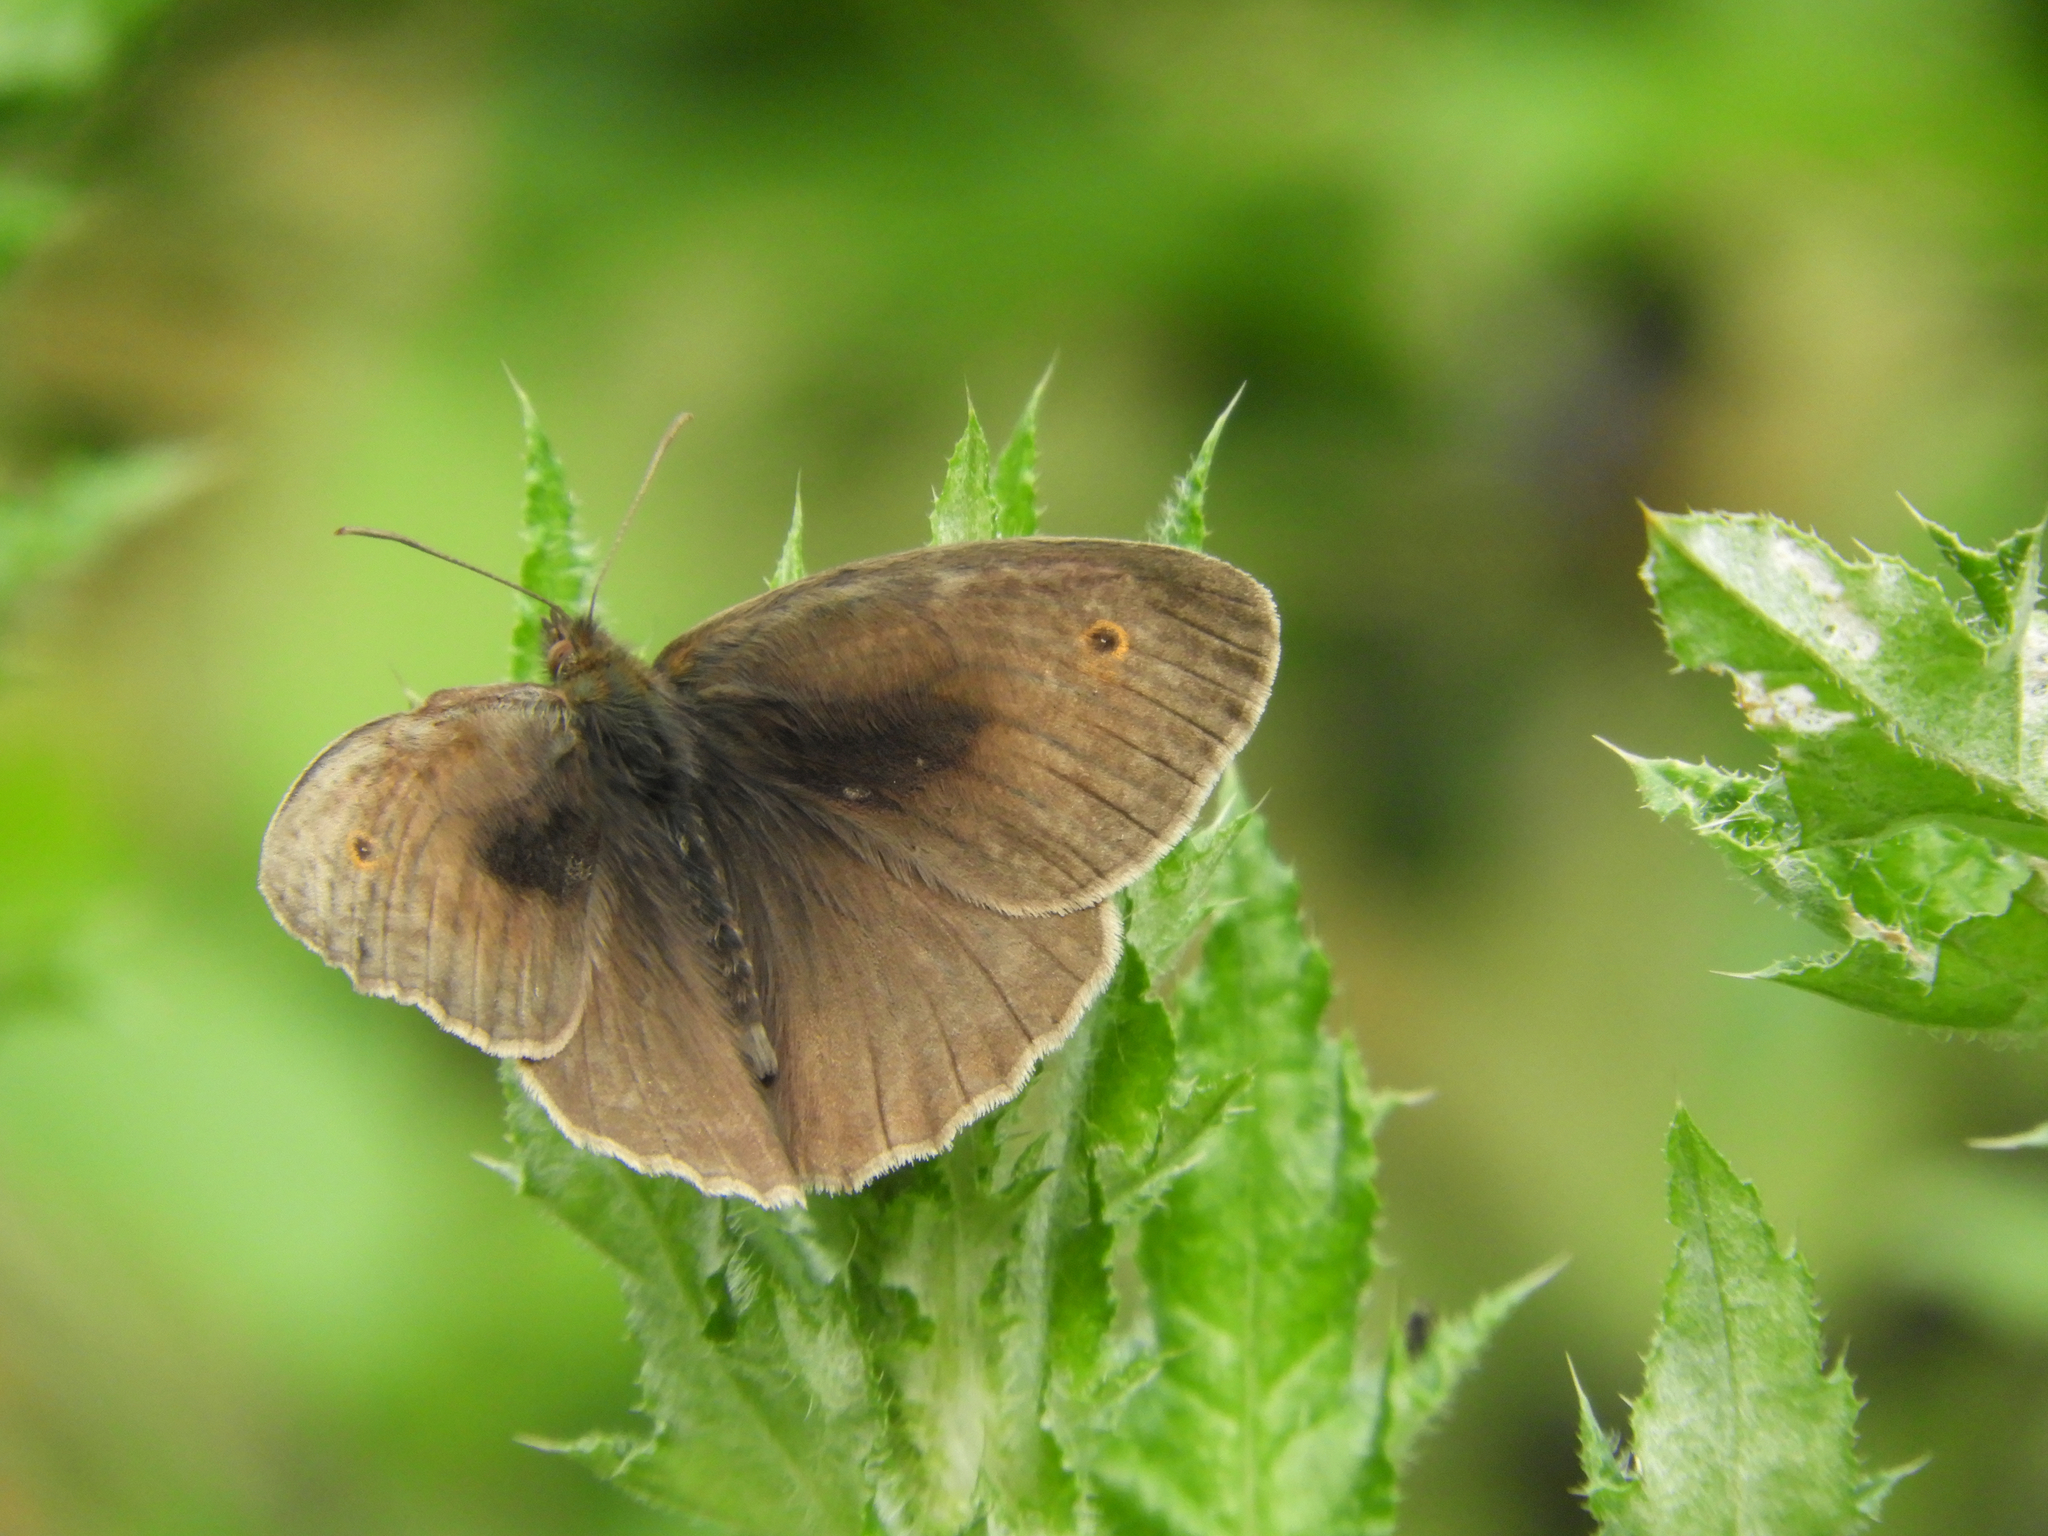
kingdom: Animalia
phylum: Arthropoda
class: Insecta
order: Lepidoptera
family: Nymphalidae
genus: Maniola
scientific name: Maniola jurtina
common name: Meadow brown
